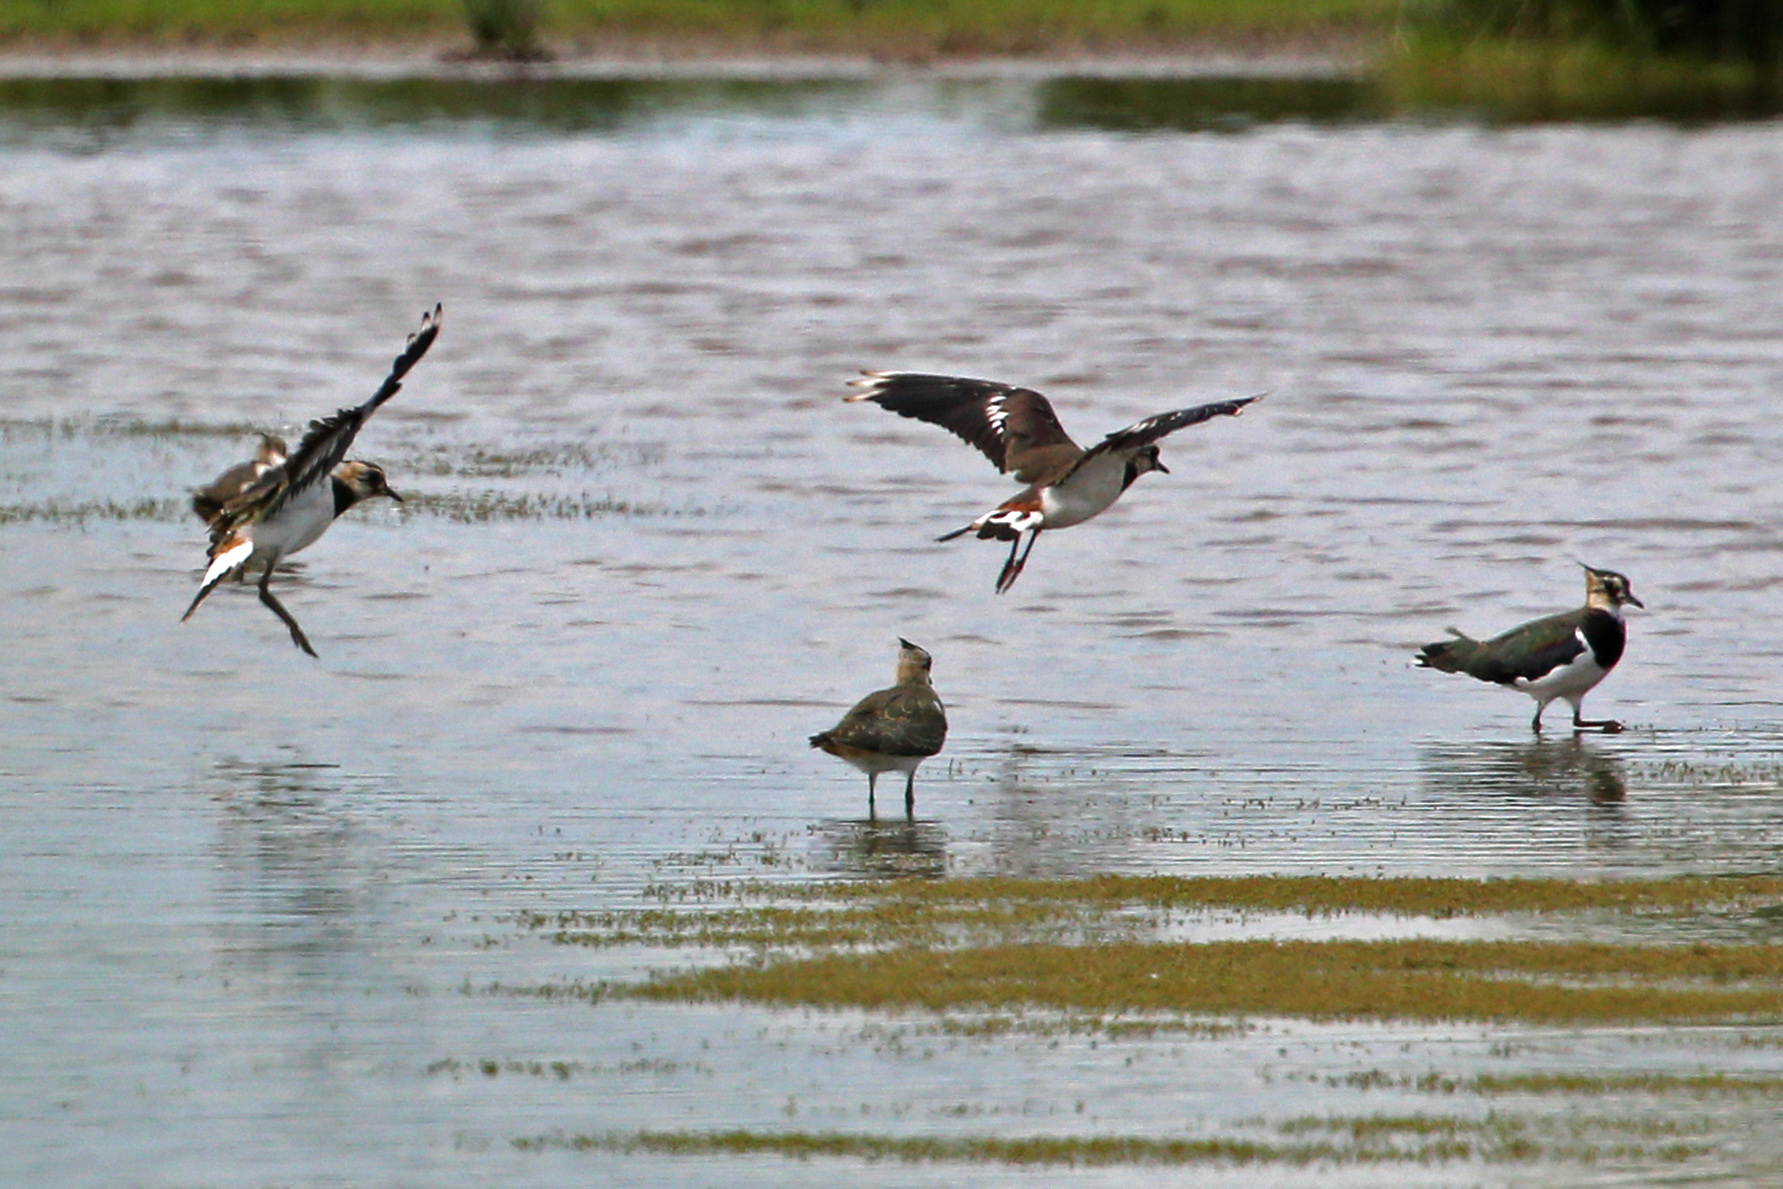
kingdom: Animalia
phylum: Chordata
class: Aves
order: Charadriiformes
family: Charadriidae
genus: Vanellus
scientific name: Vanellus vanellus
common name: Northern lapwing
